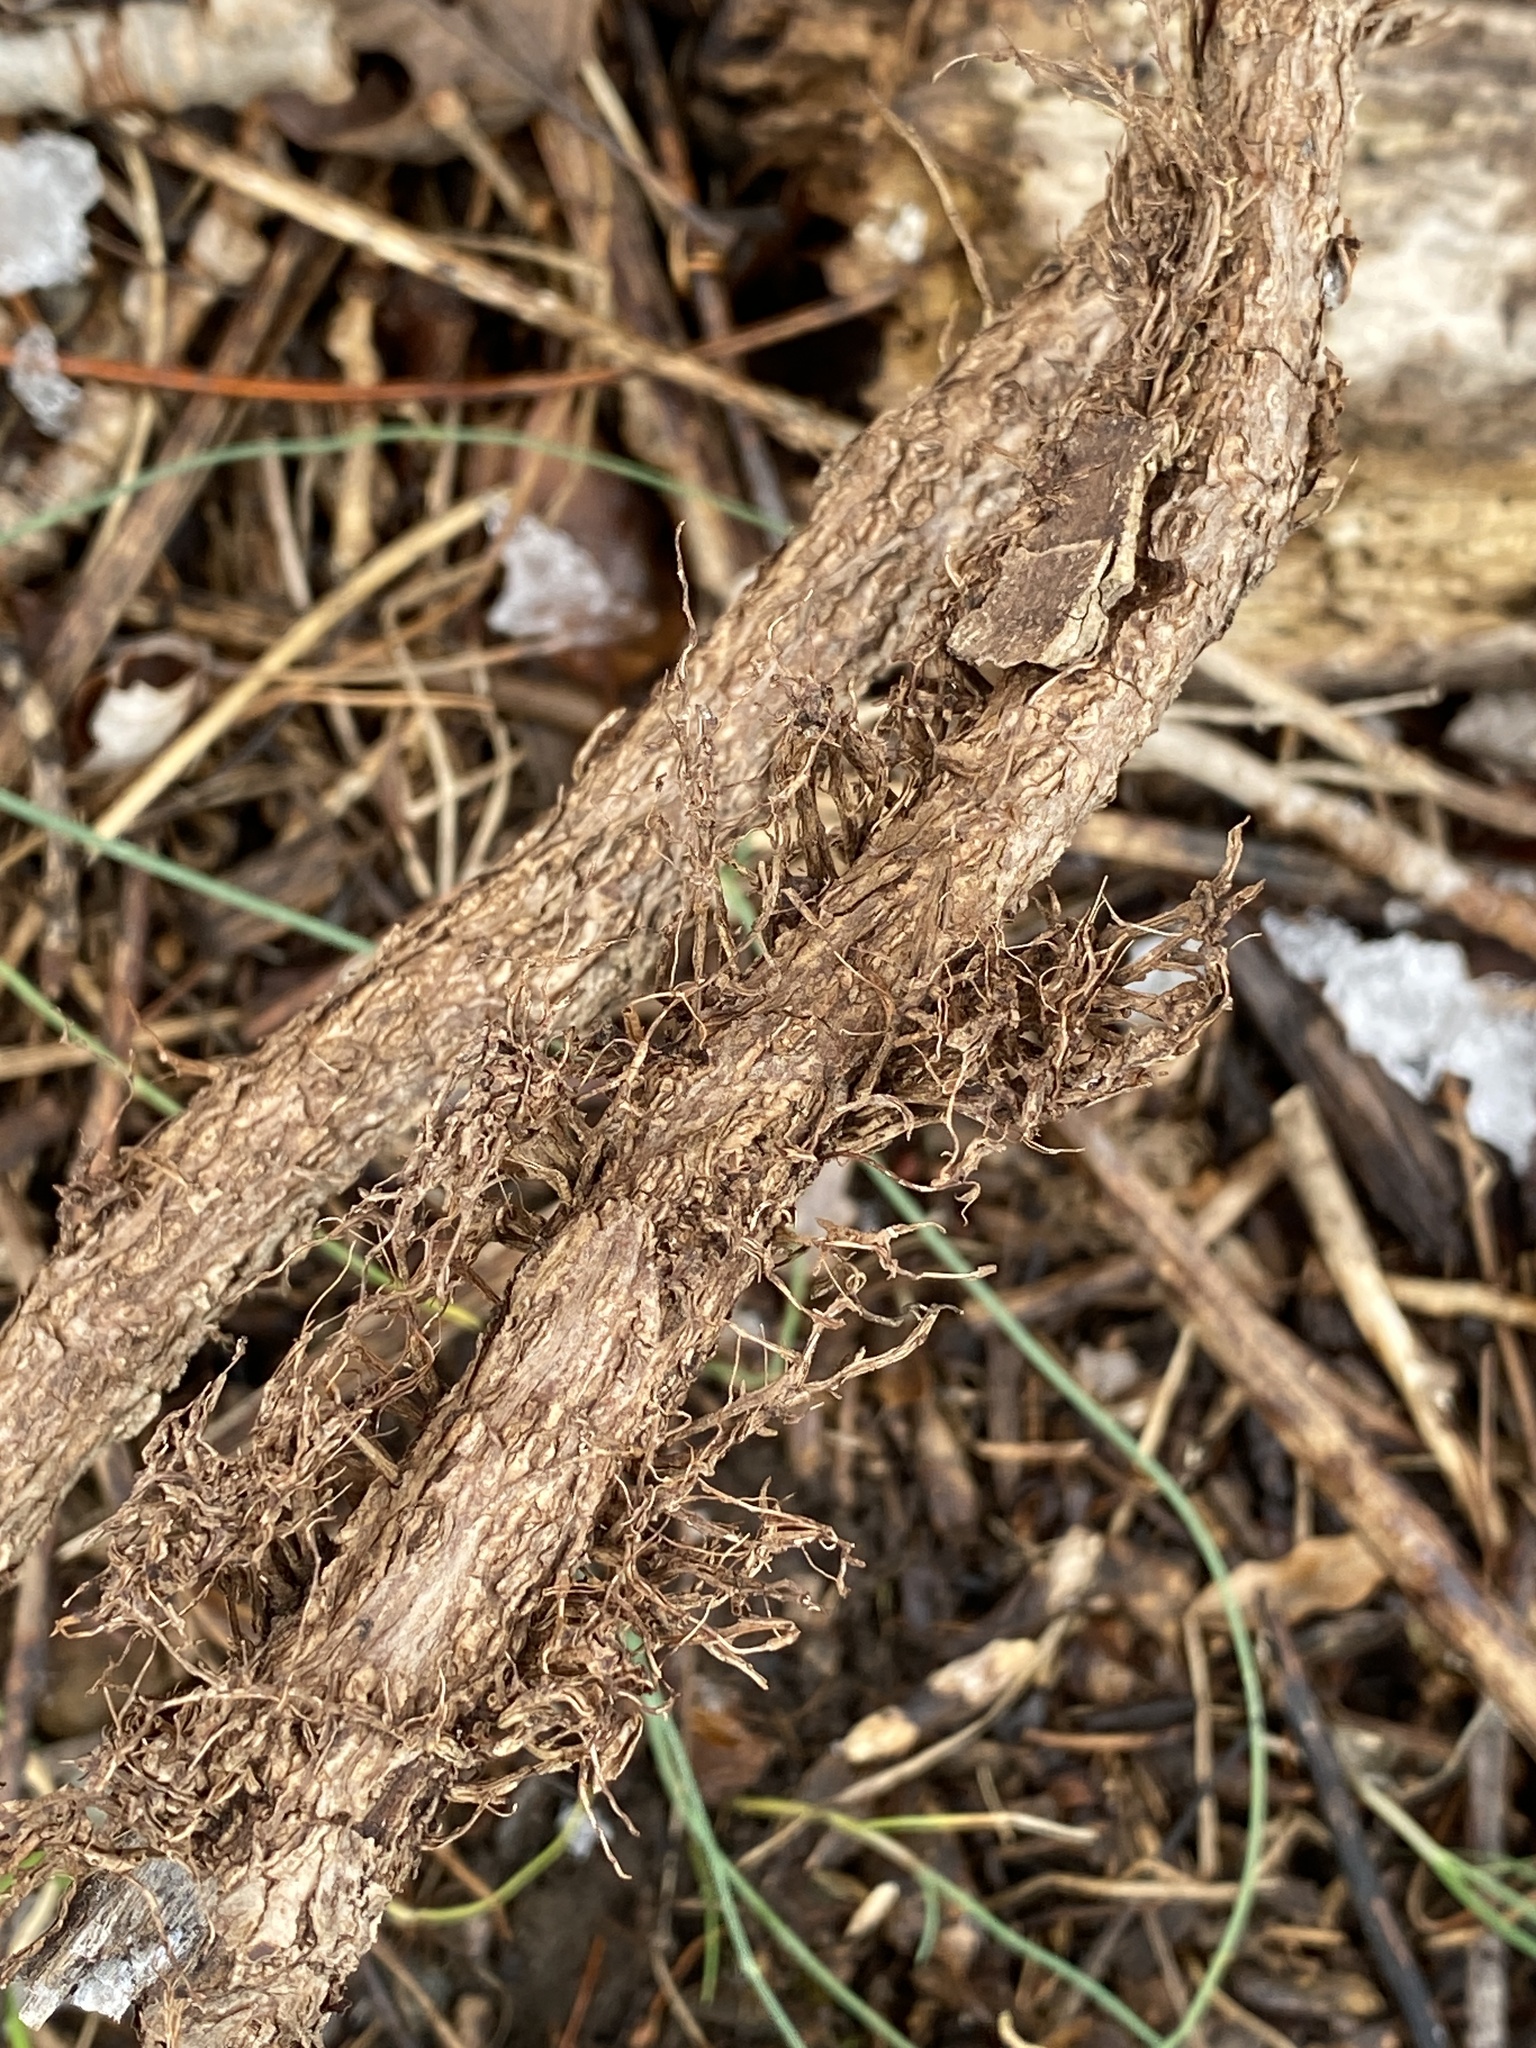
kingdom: Plantae
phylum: Tracheophyta
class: Magnoliopsida
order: Sapindales
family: Anacardiaceae
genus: Toxicodendron
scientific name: Toxicodendron radicans
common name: Poison ivy
